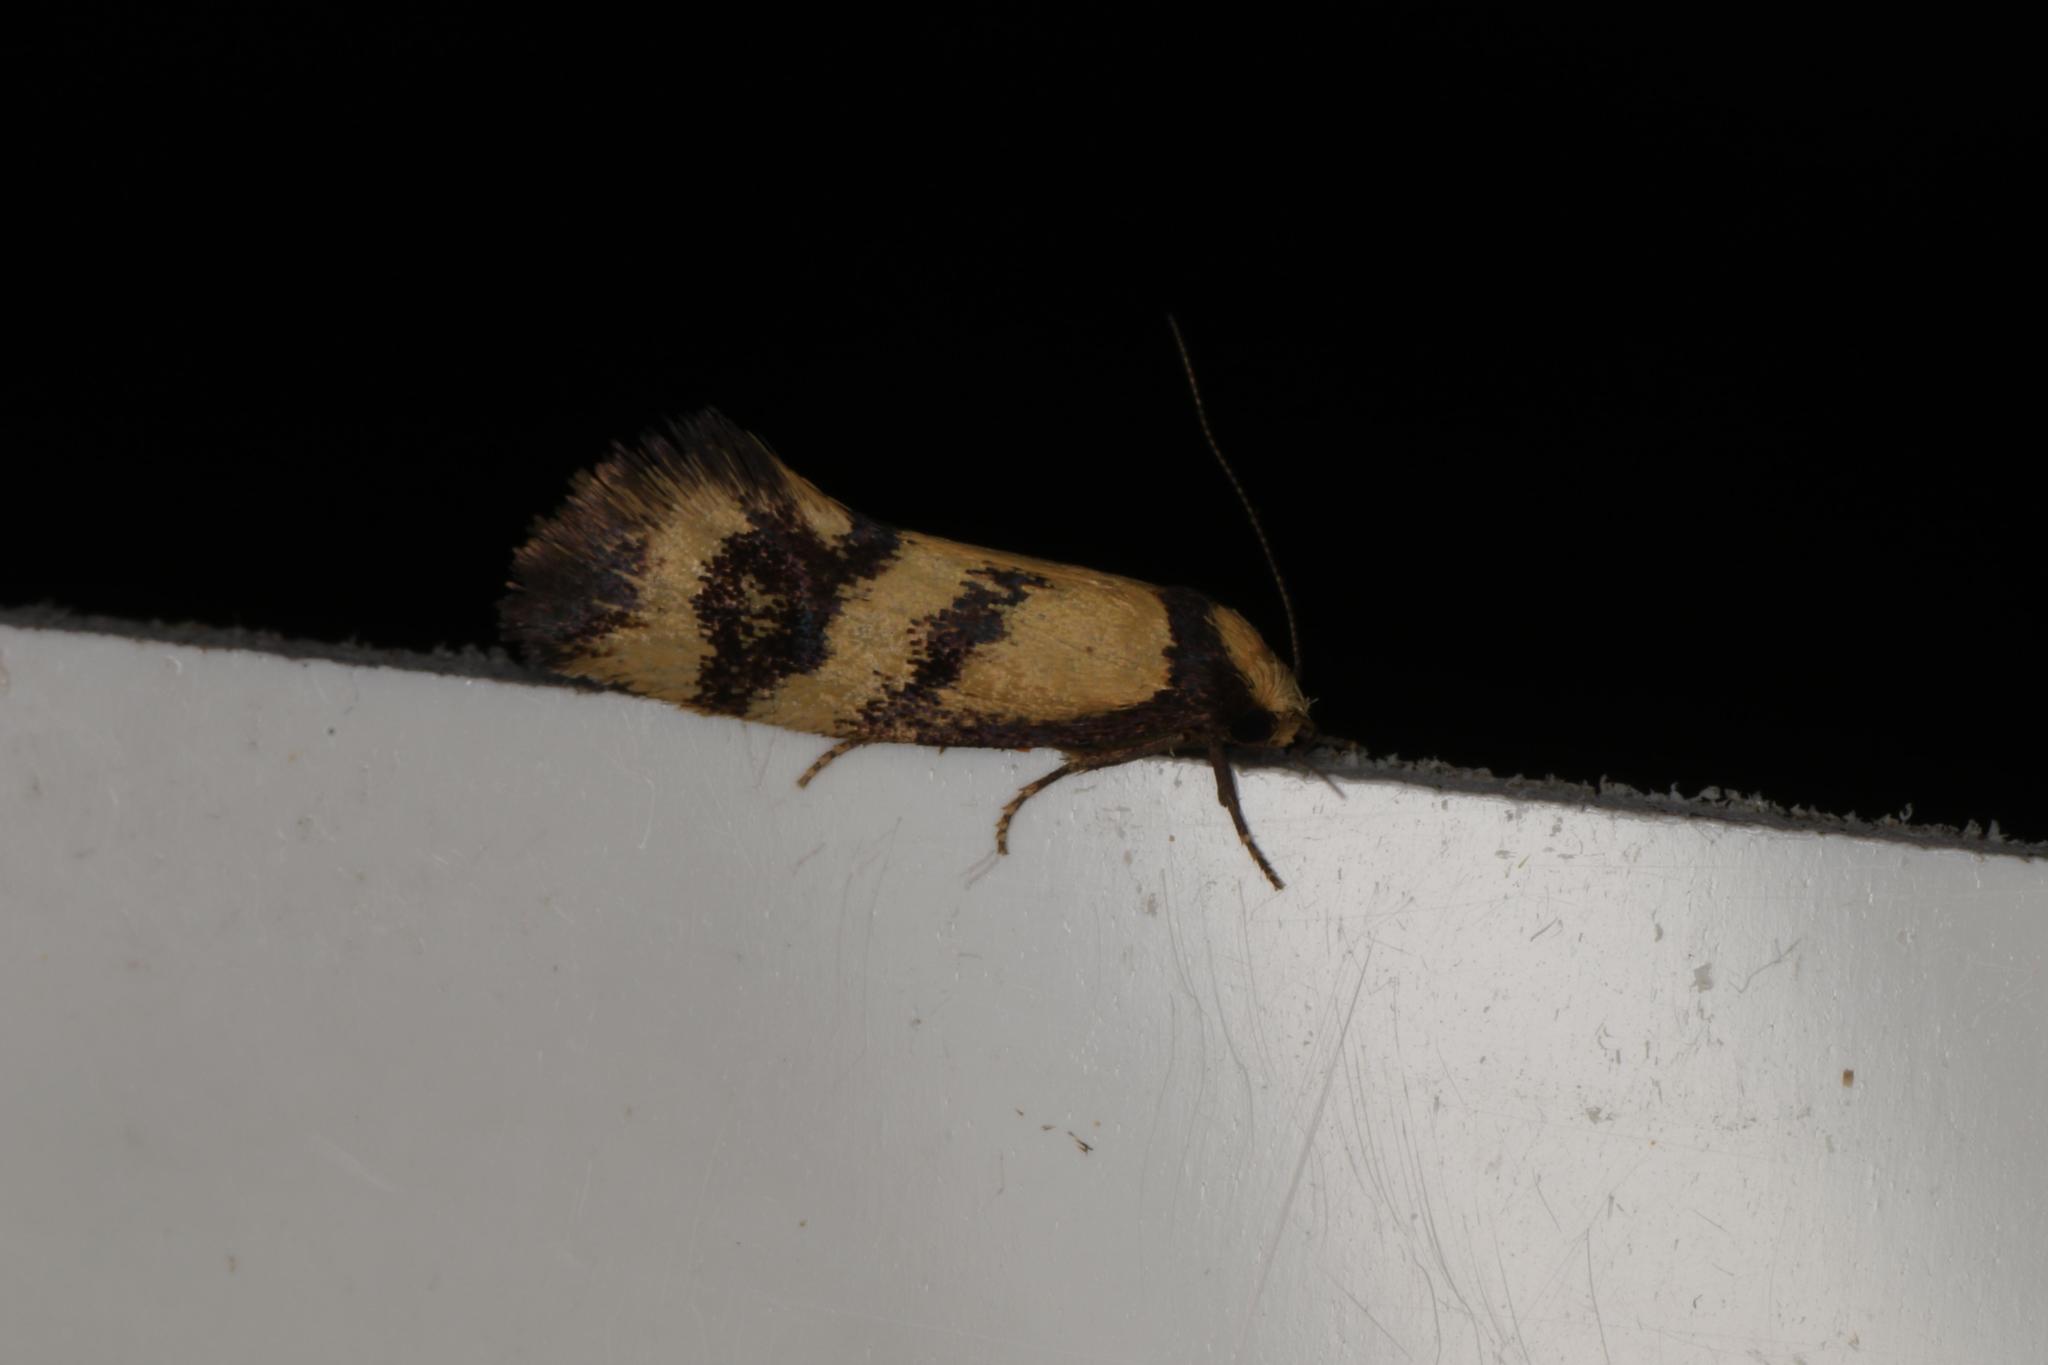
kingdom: Animalia
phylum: Arthropoda
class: Insecta
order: Lepidoptera
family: Oecophoridae
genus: Olbonoma
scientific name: Olbonoma triptycha
